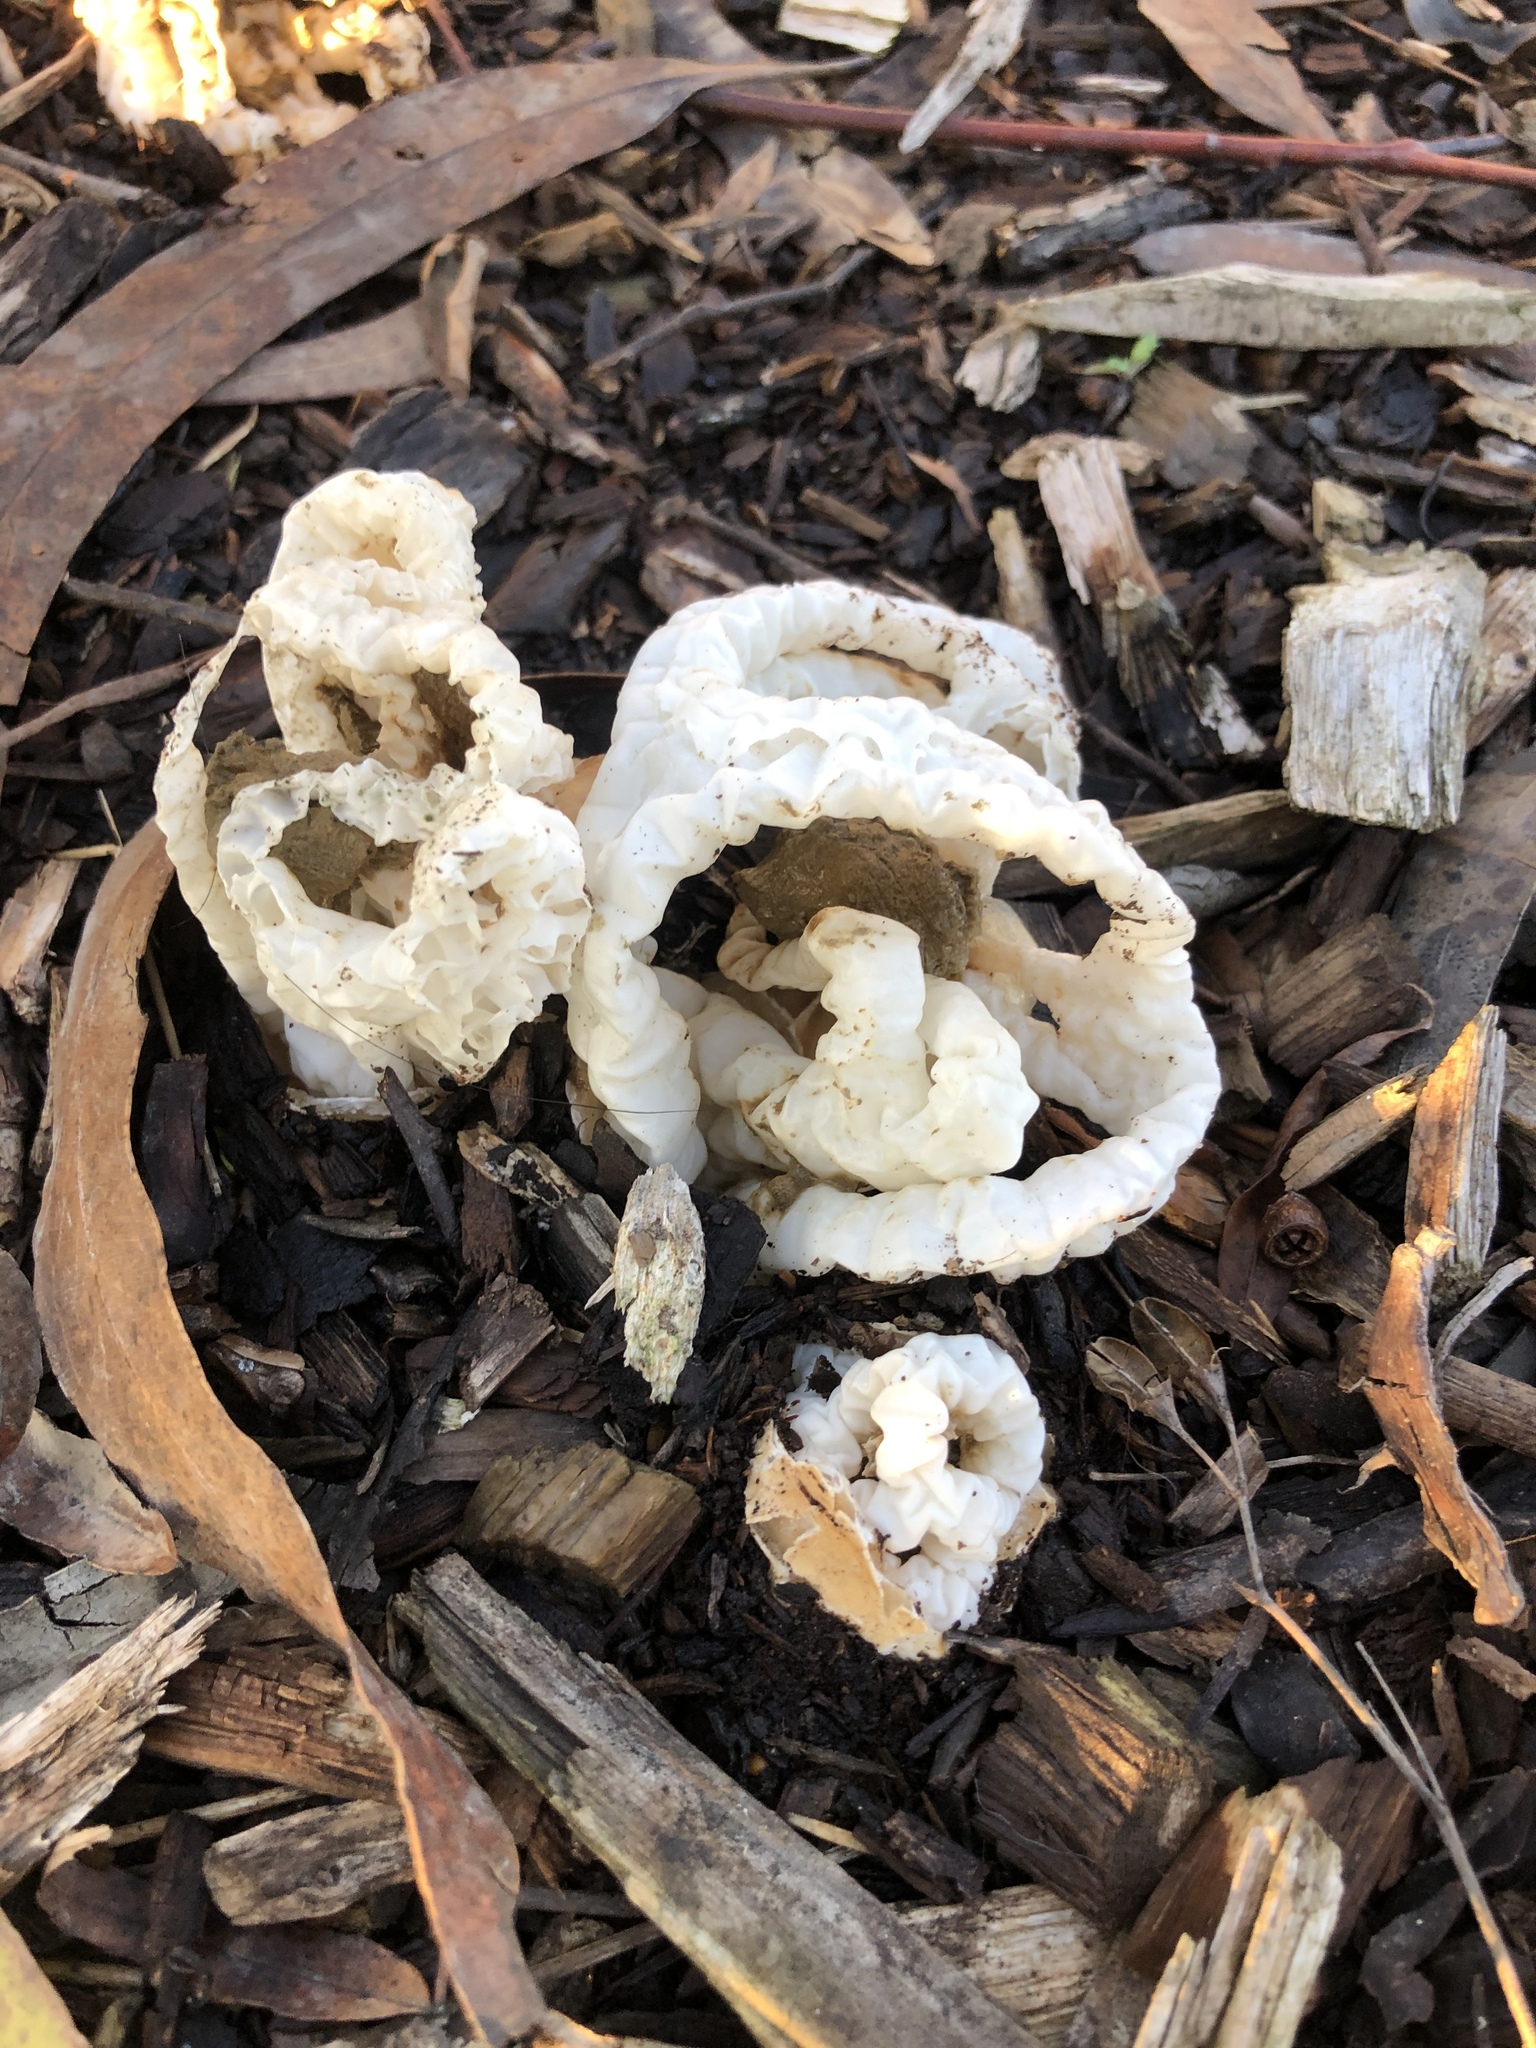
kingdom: Fungi
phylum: Basidiomycota
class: Agaricomycetes
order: Phallales
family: Phallaceae
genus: Ileodictyon
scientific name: Ileodictyon cibarium
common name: Basket fungus
